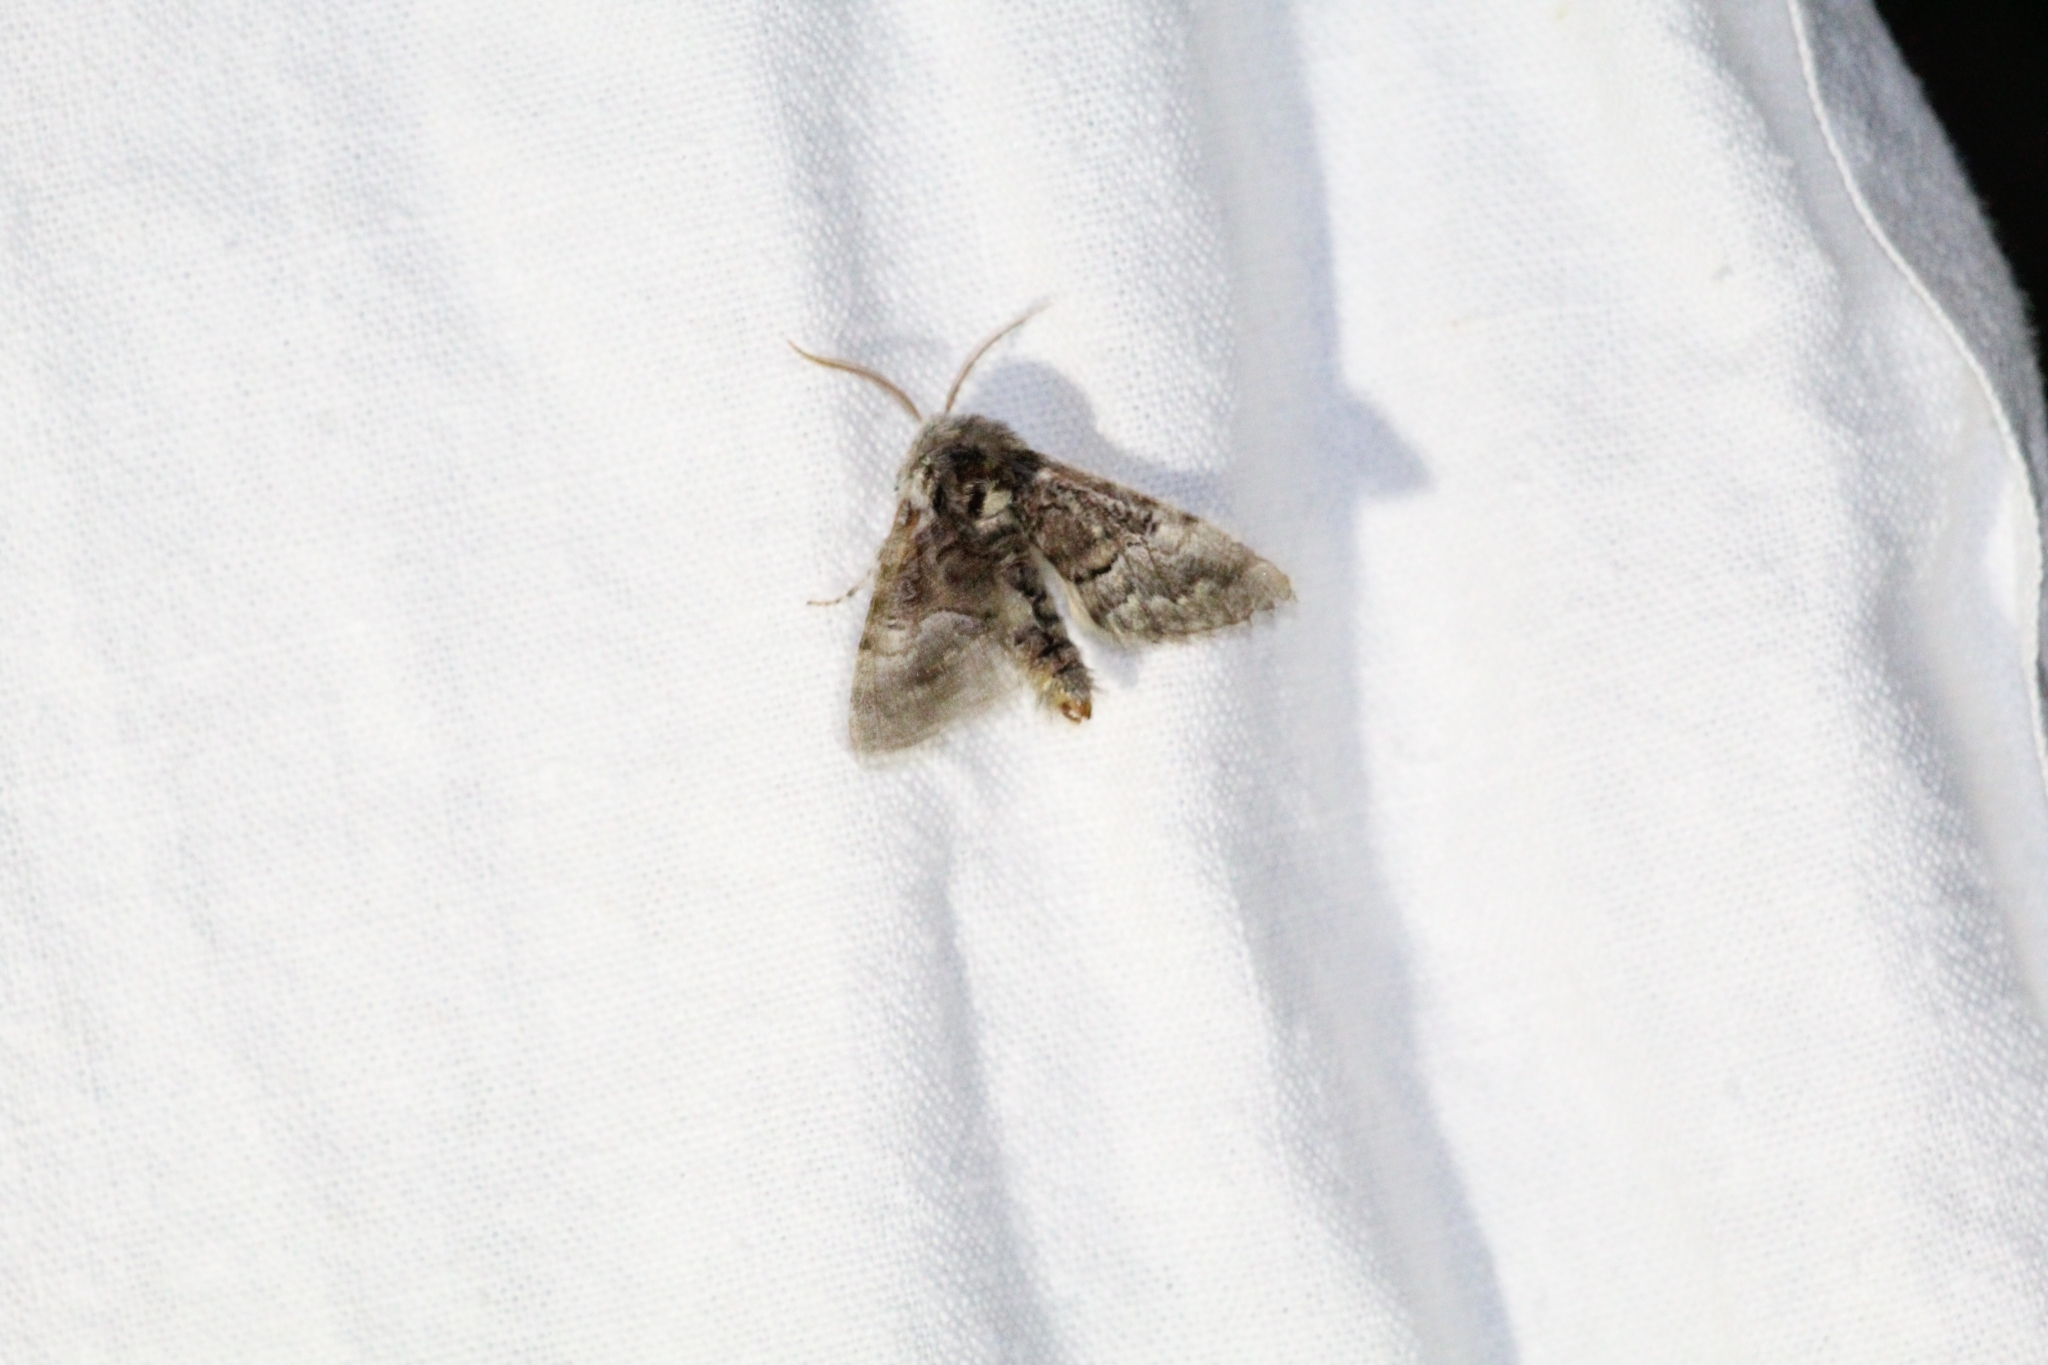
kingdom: Animalia
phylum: Arthropoda
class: Insecta
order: Lepidoptera
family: Noctuidae
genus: Colocasia
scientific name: Colocasia coryli
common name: Nut-tree tussock
